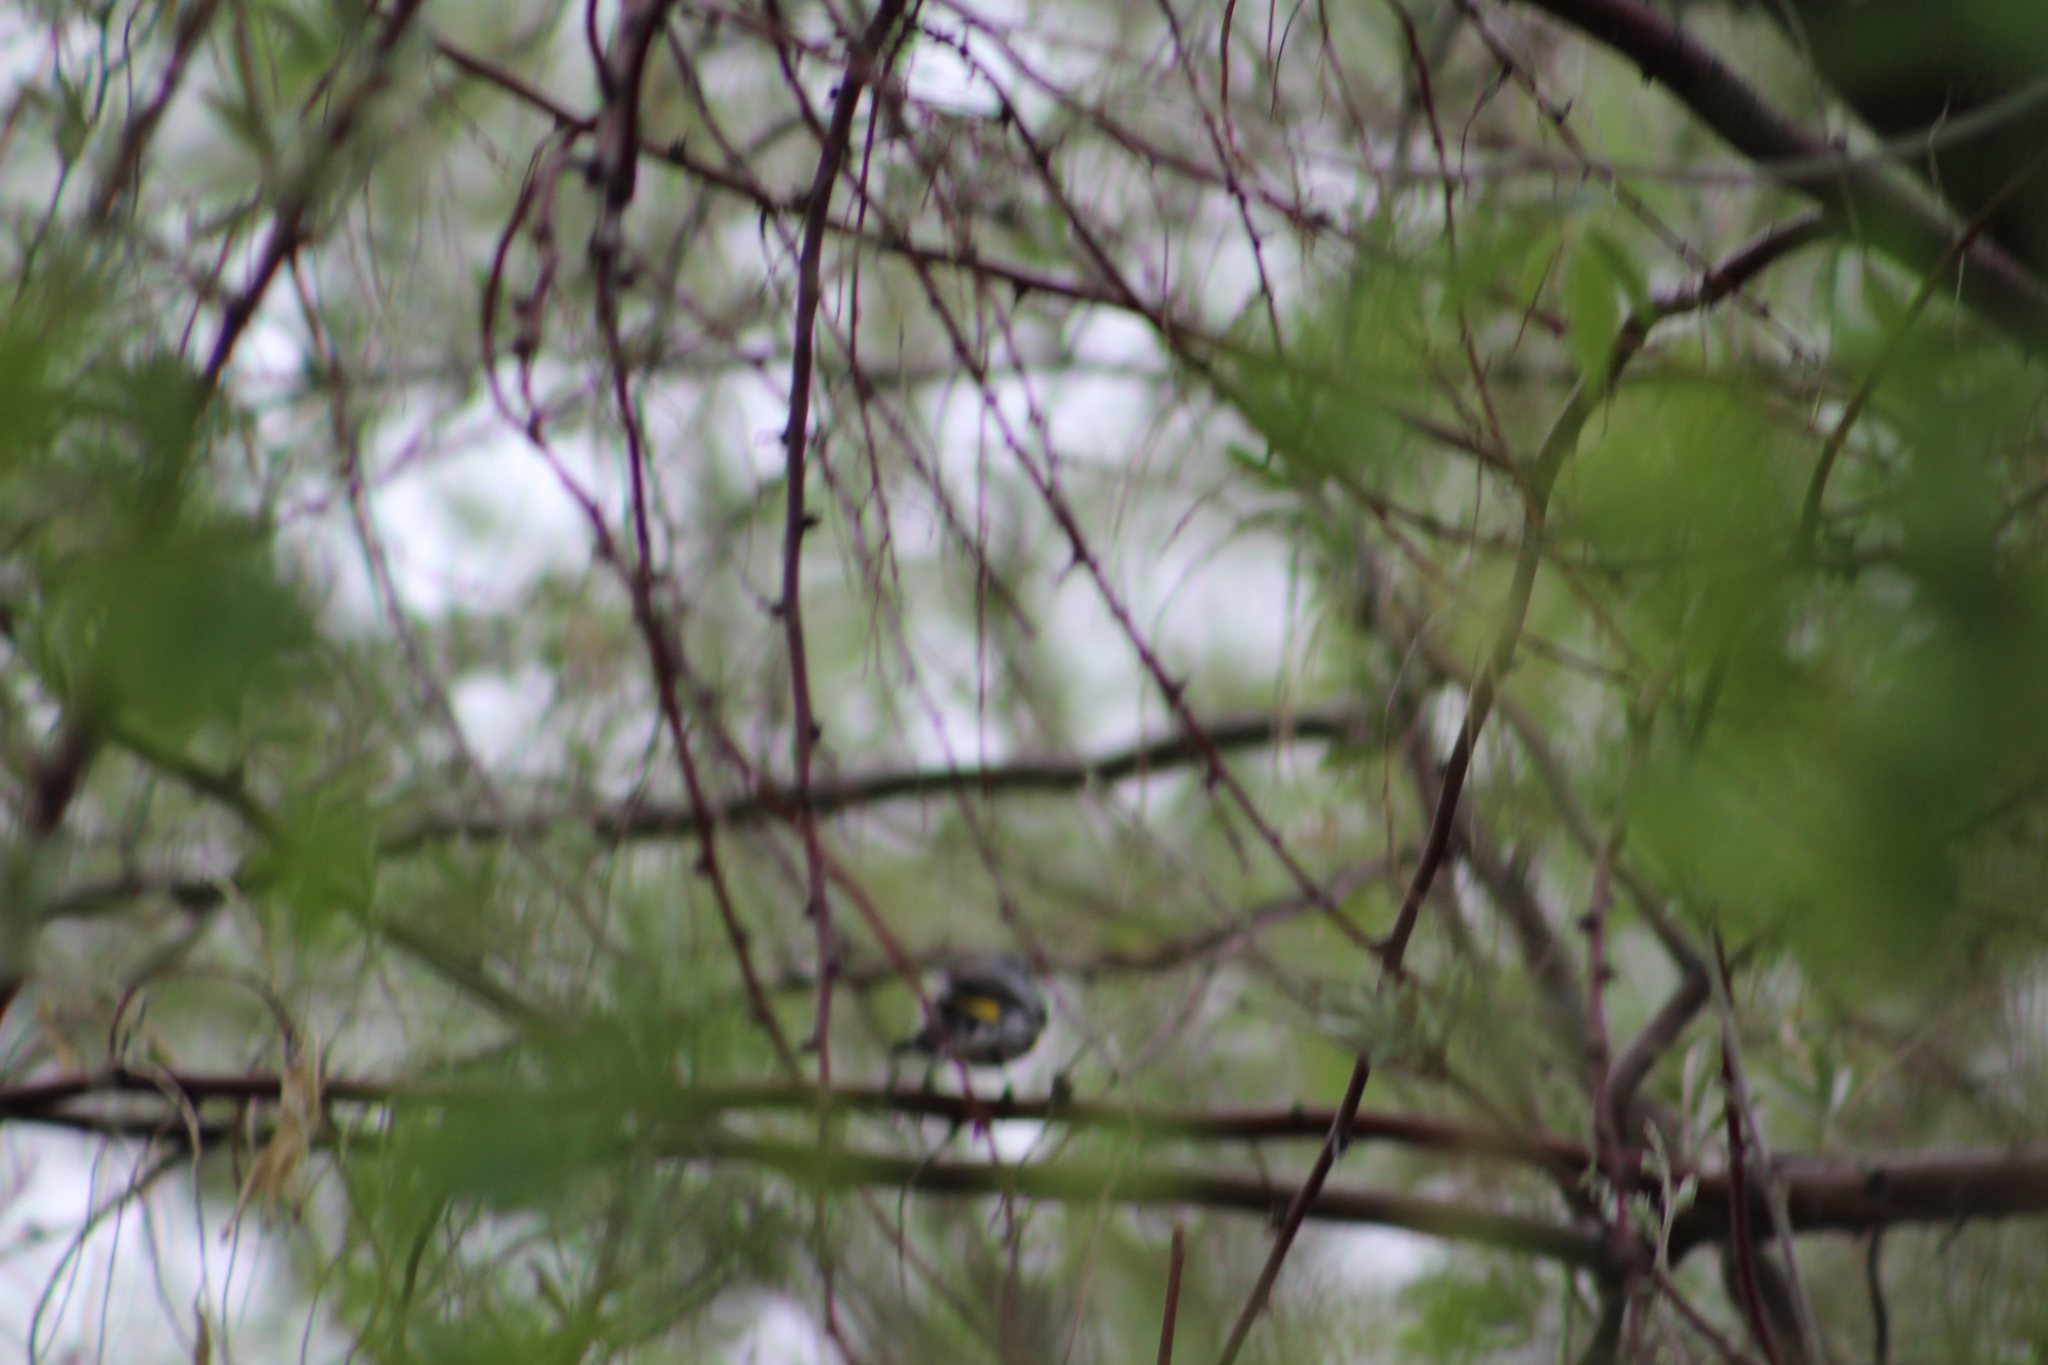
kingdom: Animalia
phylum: Chordata
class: Aves
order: Passeriformes
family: Parulidae
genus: Setophaga
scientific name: Setophaga coronata
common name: Myrtle warbler
